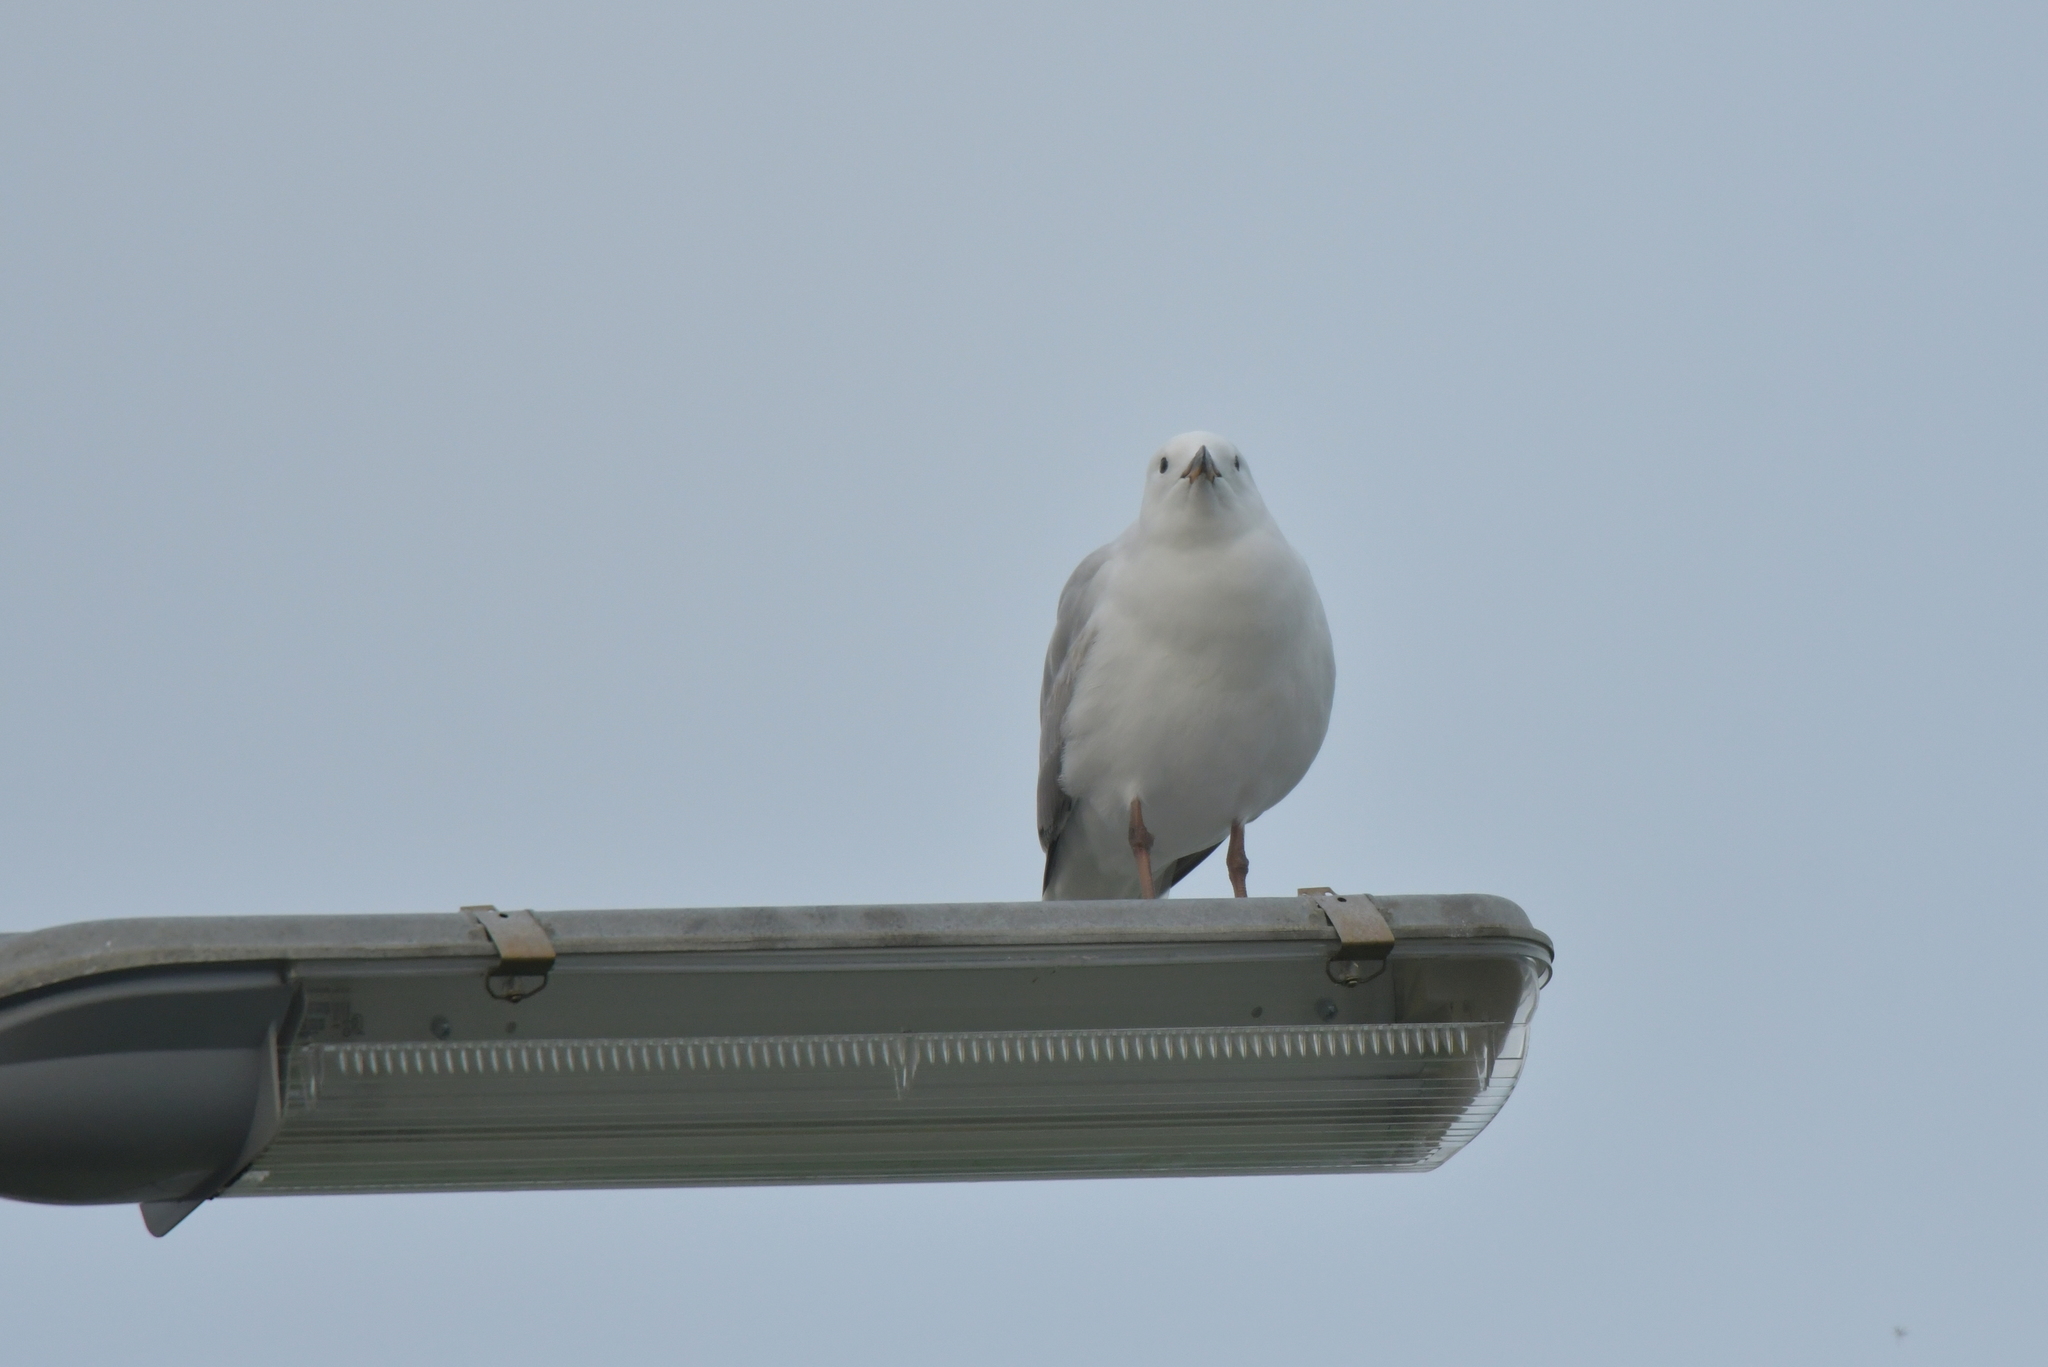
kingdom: Animalia
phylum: Chordata
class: Aves
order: Charadriiformes
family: Laridae
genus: Chroicocephalus
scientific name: Chroicocephalus novaehollandiae
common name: Silver gull
